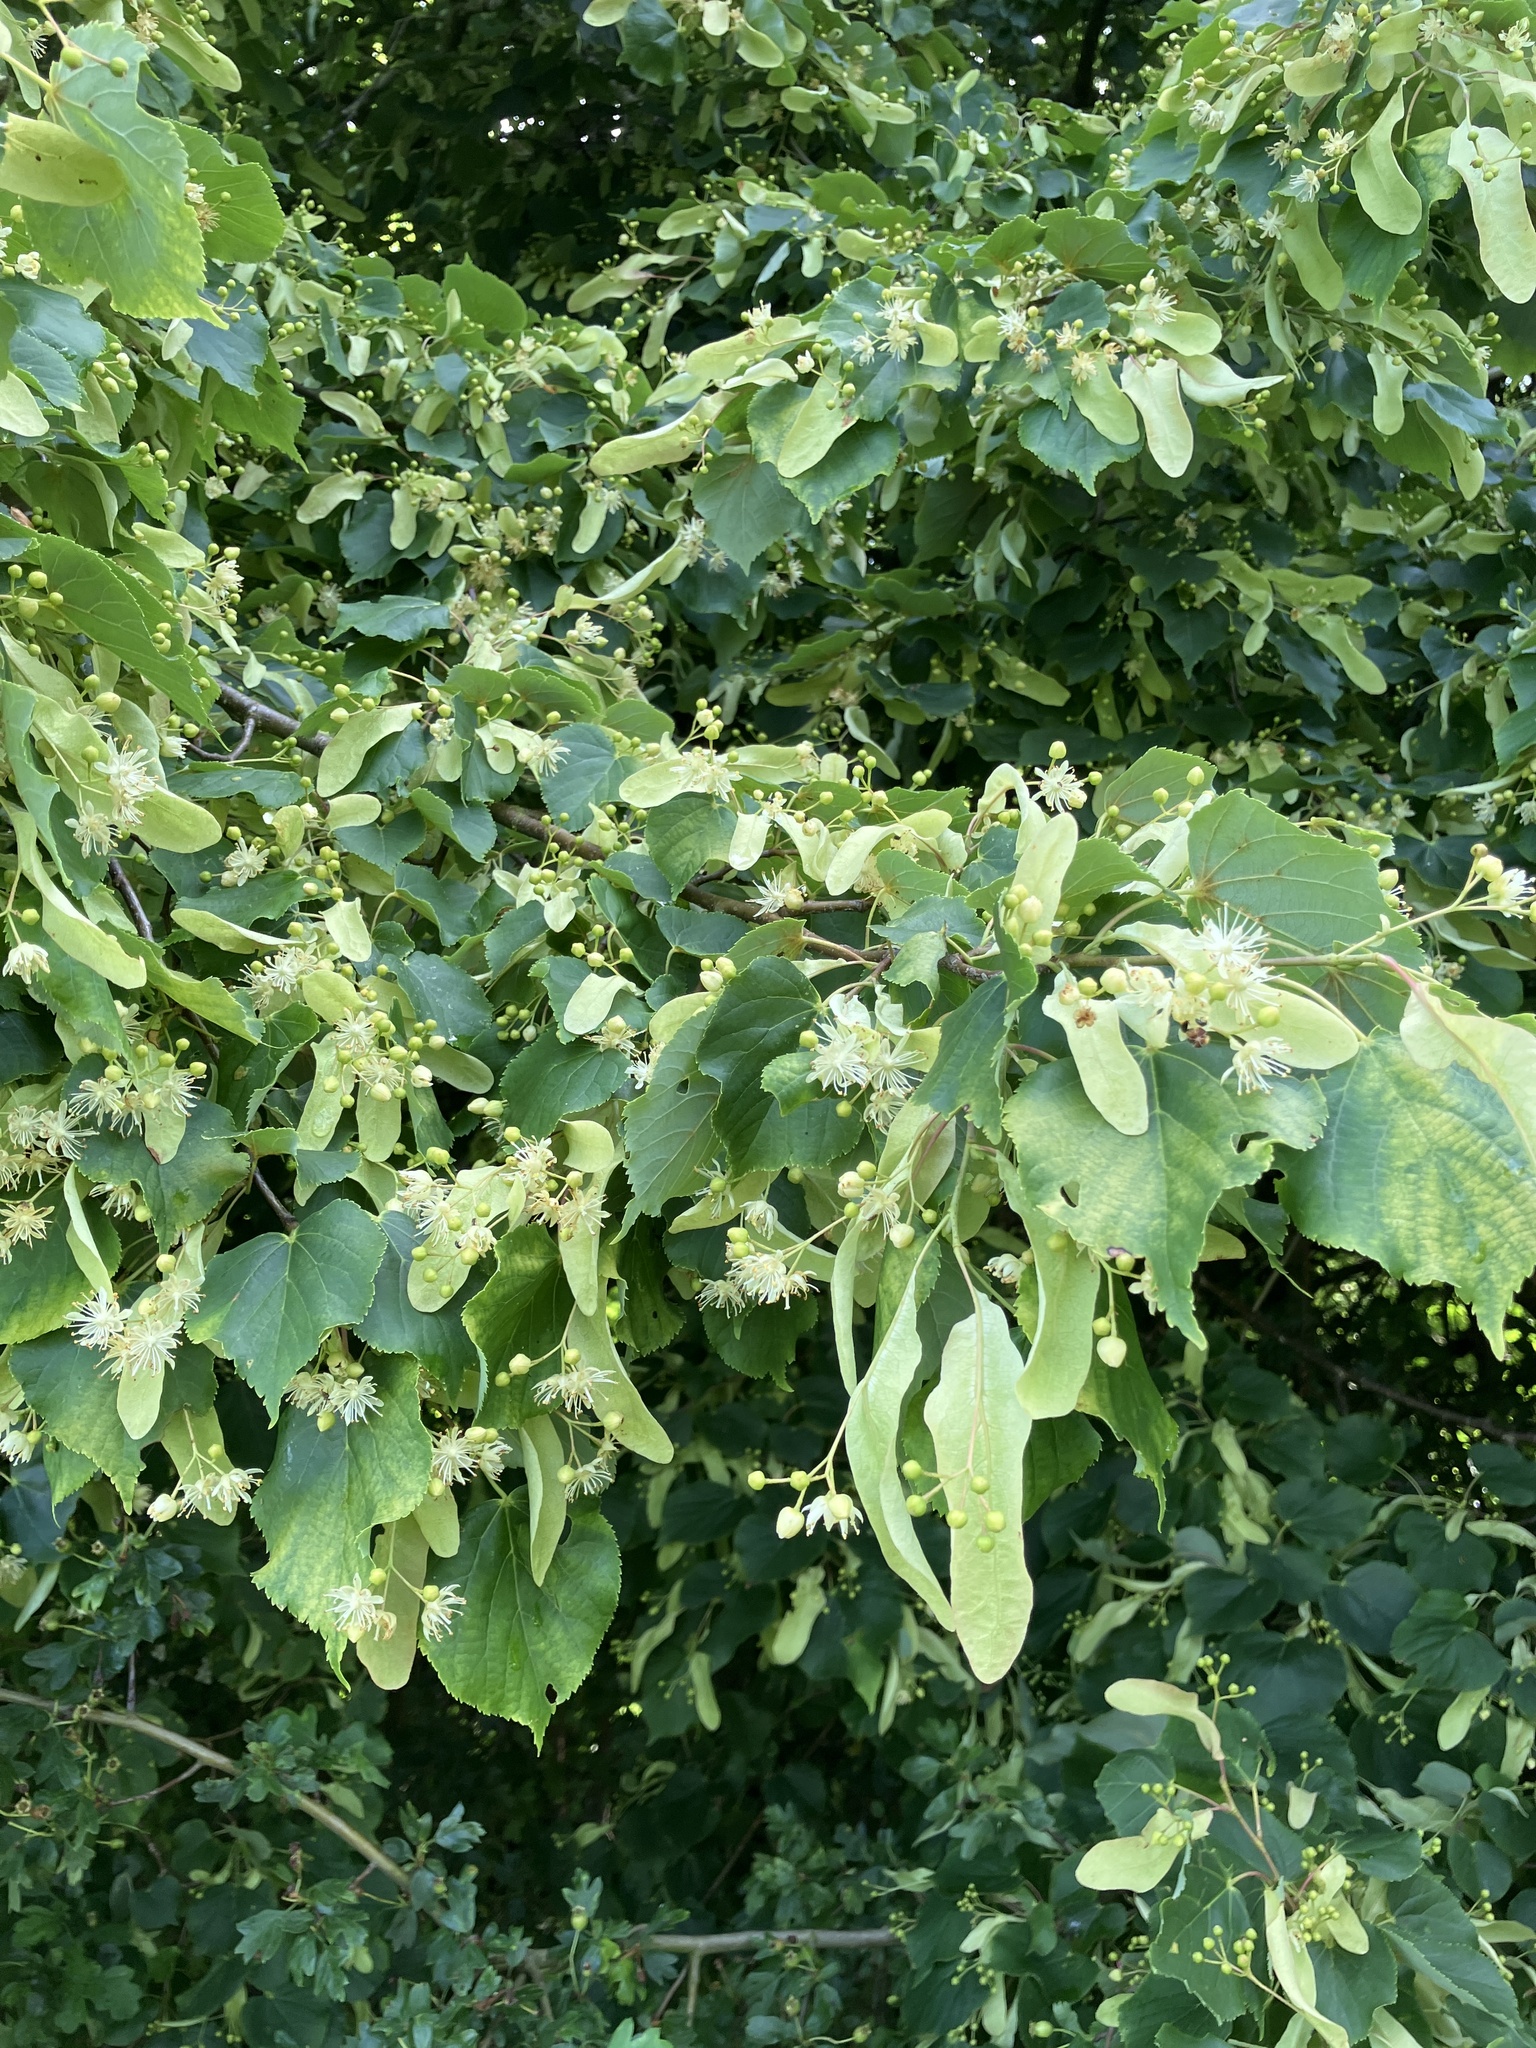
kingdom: Plantae
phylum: Tracheophyta
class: Magnoliopsida
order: Malvales
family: Malvaceae
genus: Tilia
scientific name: Tilia cordata
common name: Small-leaved lime
